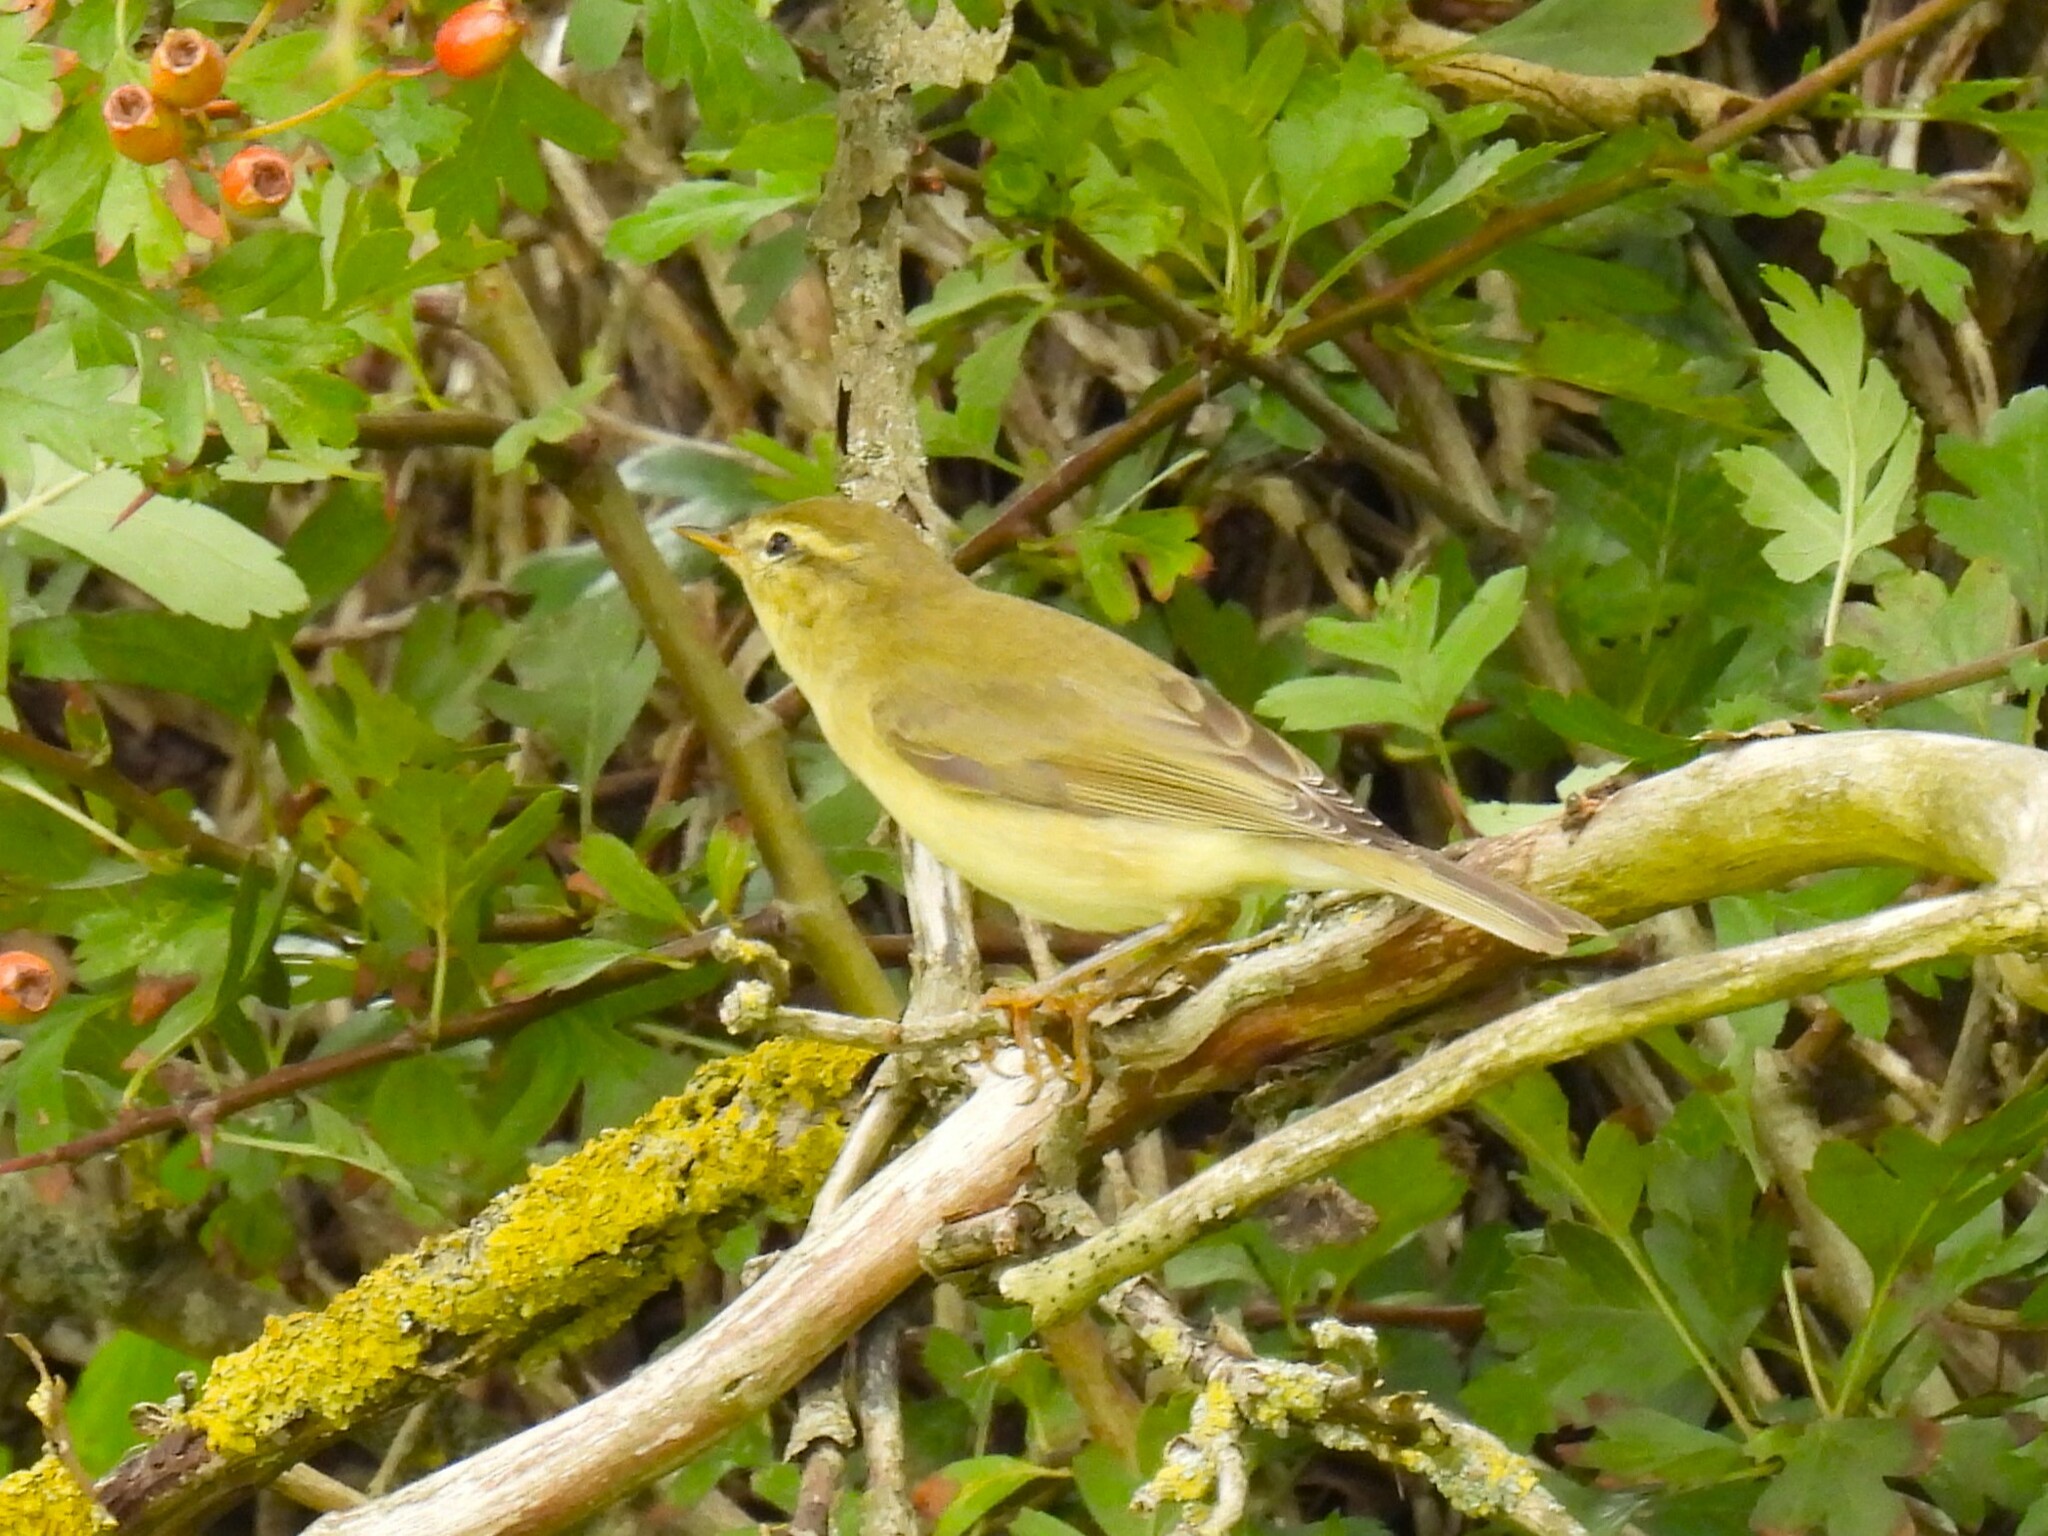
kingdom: Animalia
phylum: Chordata
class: Aves
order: Passeriformes
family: Phylloscopidae
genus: Phylloscopus
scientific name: Phylloscopus trochilus
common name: Willow warbler
